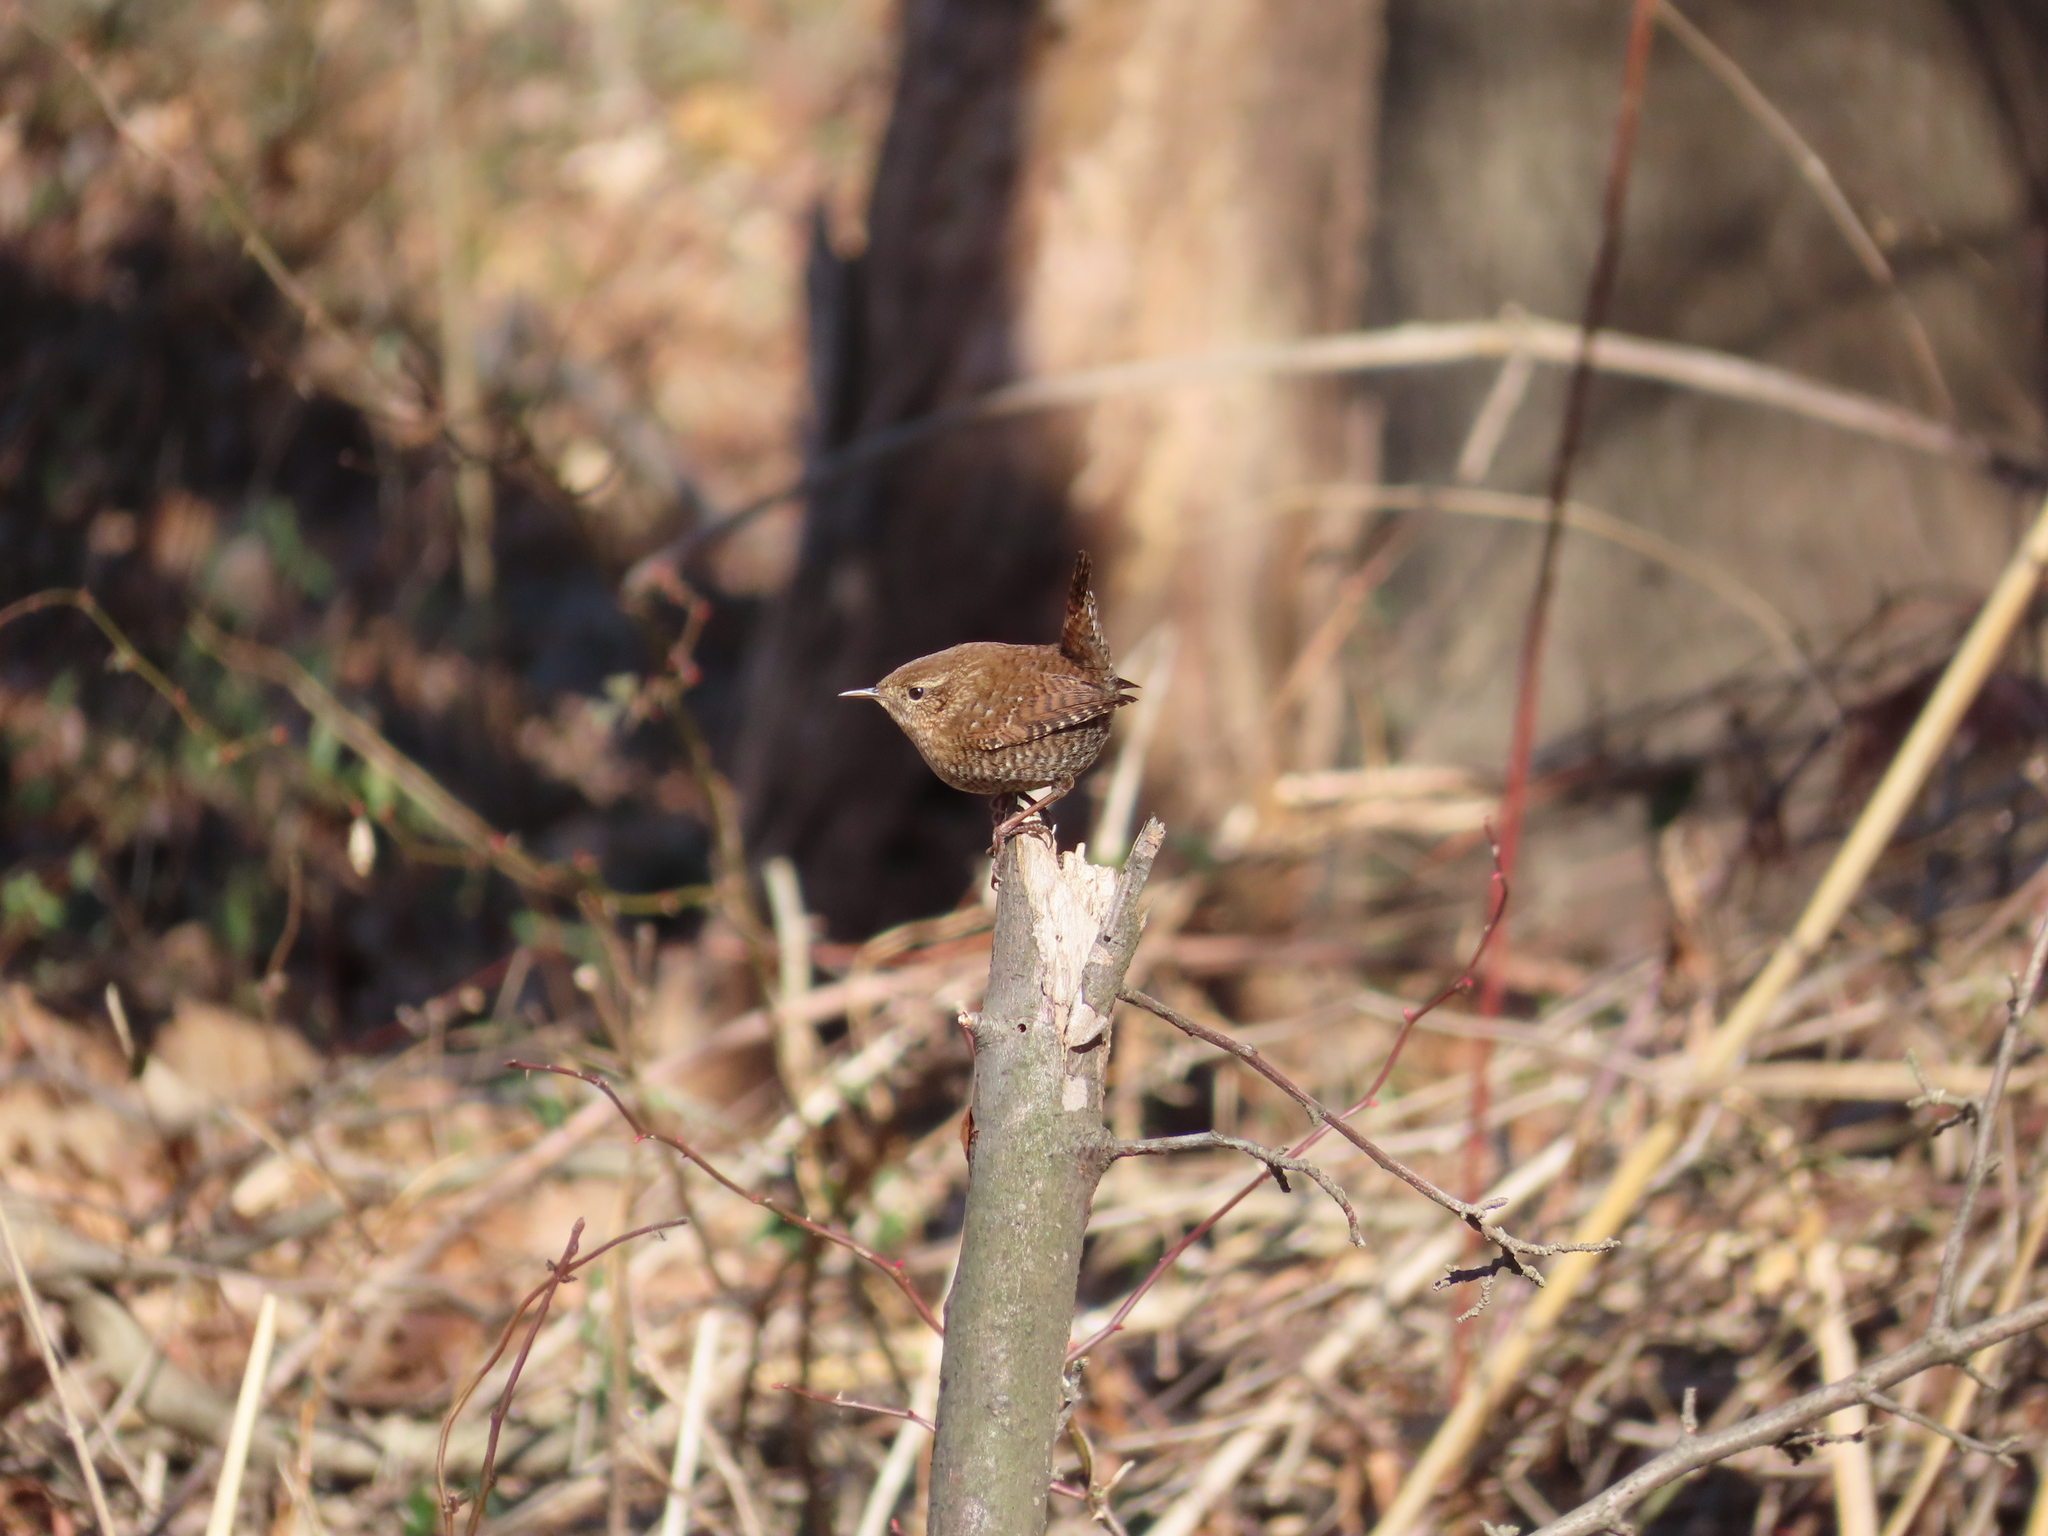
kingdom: Animalia
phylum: Chordata
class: Aves
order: Passeriformes
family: Troglodytidae
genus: Troglodytes
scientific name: Troglodytes hiemalis
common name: Winter wren
